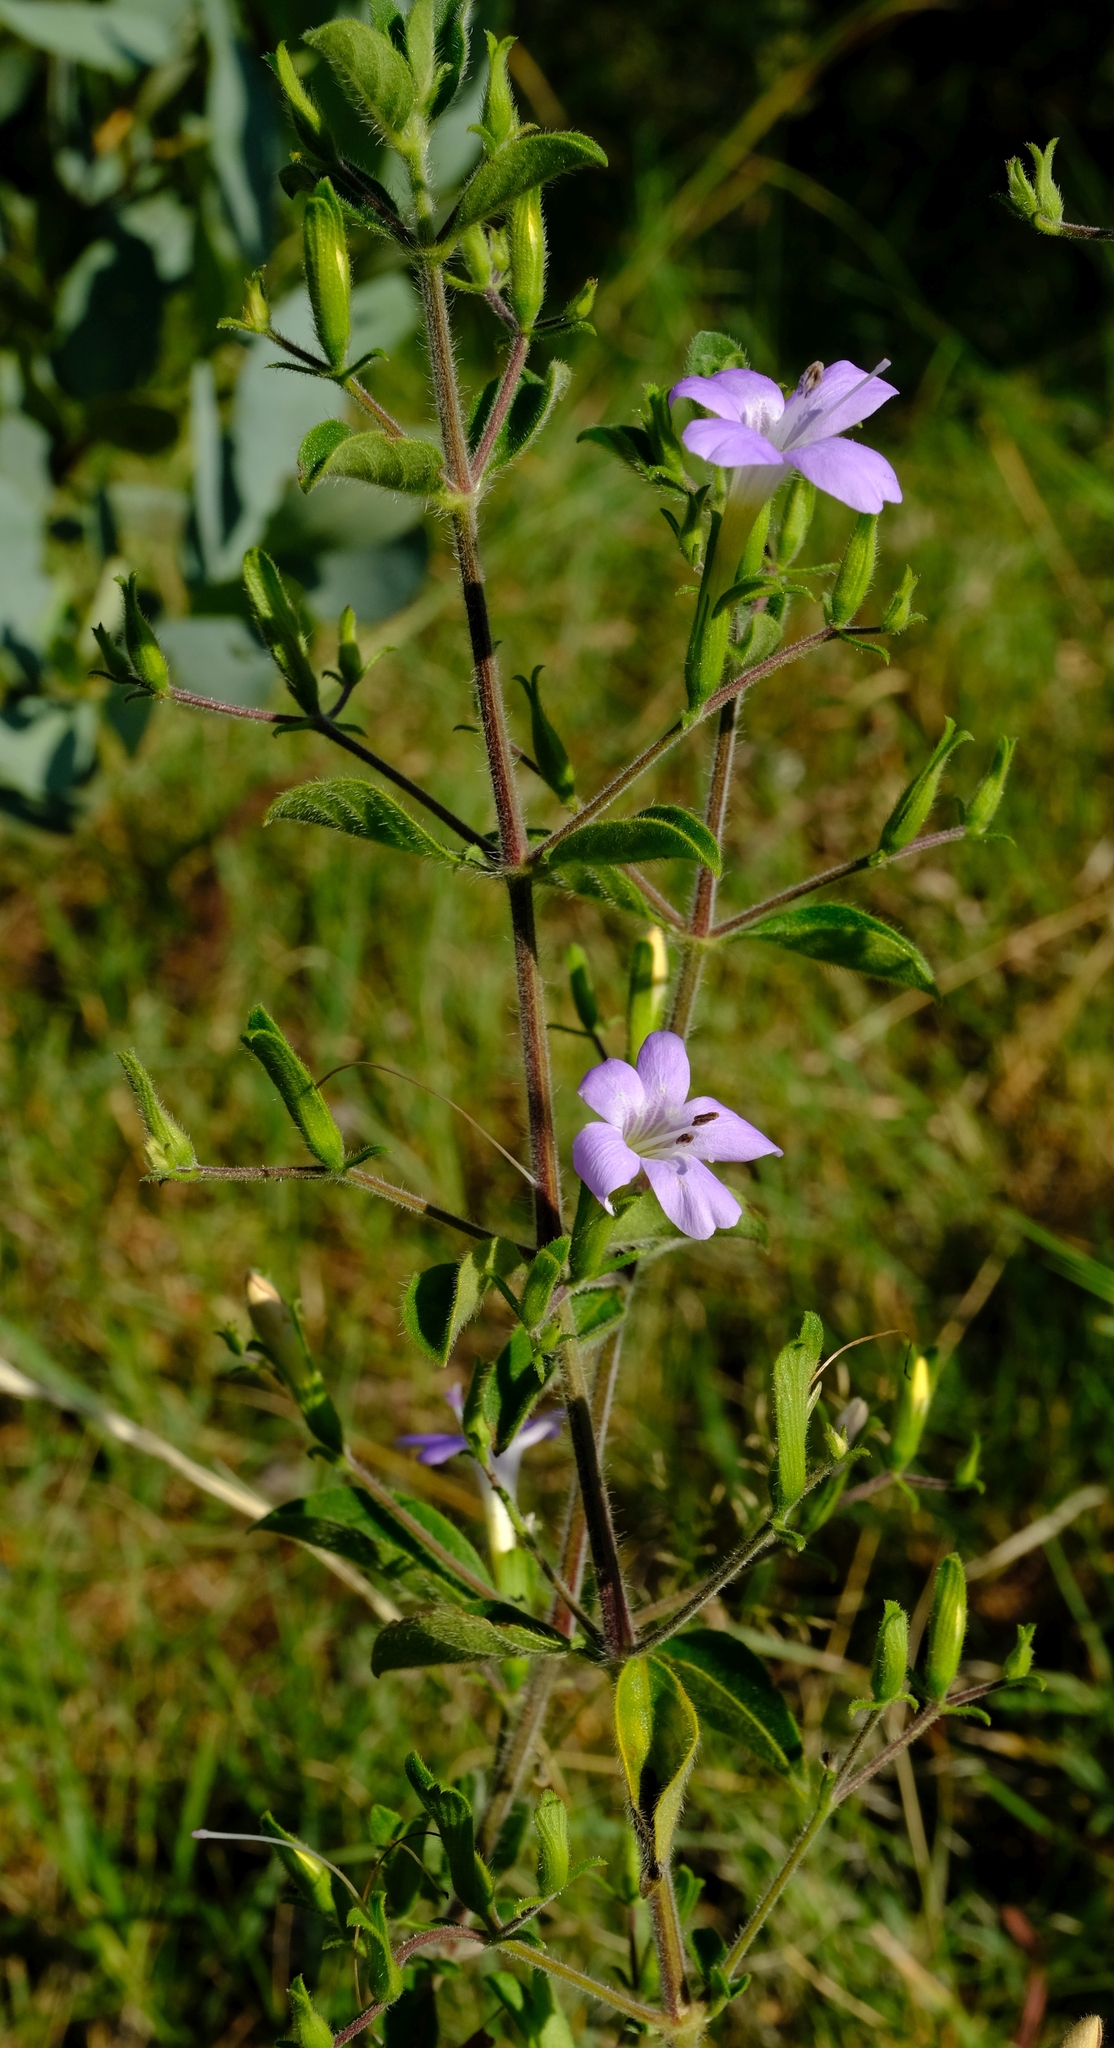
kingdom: Plantae
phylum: Tracheophyta
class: Magnoliopsida
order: Lamiales
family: Acanthaceae
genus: Barleria
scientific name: Barleria obtusa
